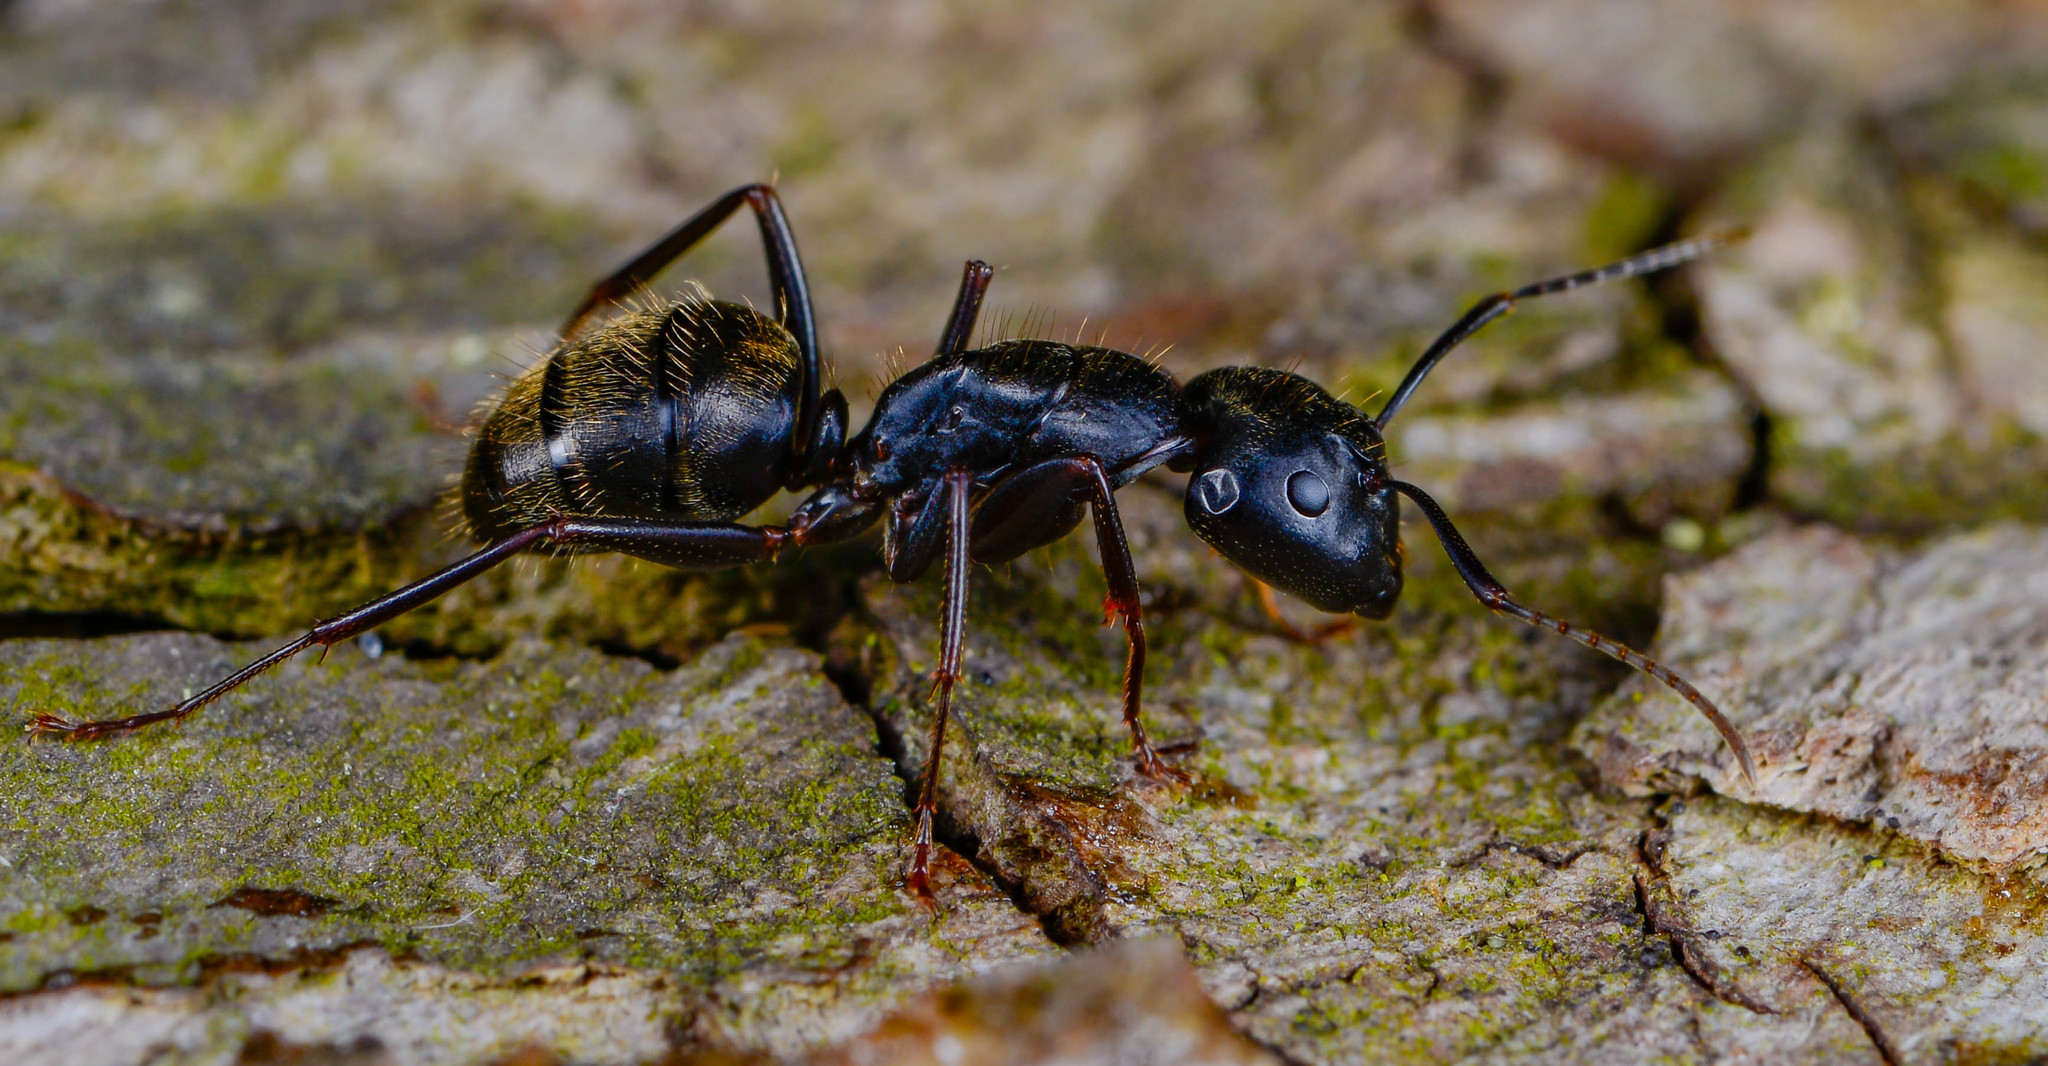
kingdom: Animalia
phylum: Arthropoda
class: Insecta
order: Hymenoptera
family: Formicidae
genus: Camponotus
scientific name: Camponotus pennsylvanicus
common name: Black carpenter ant
